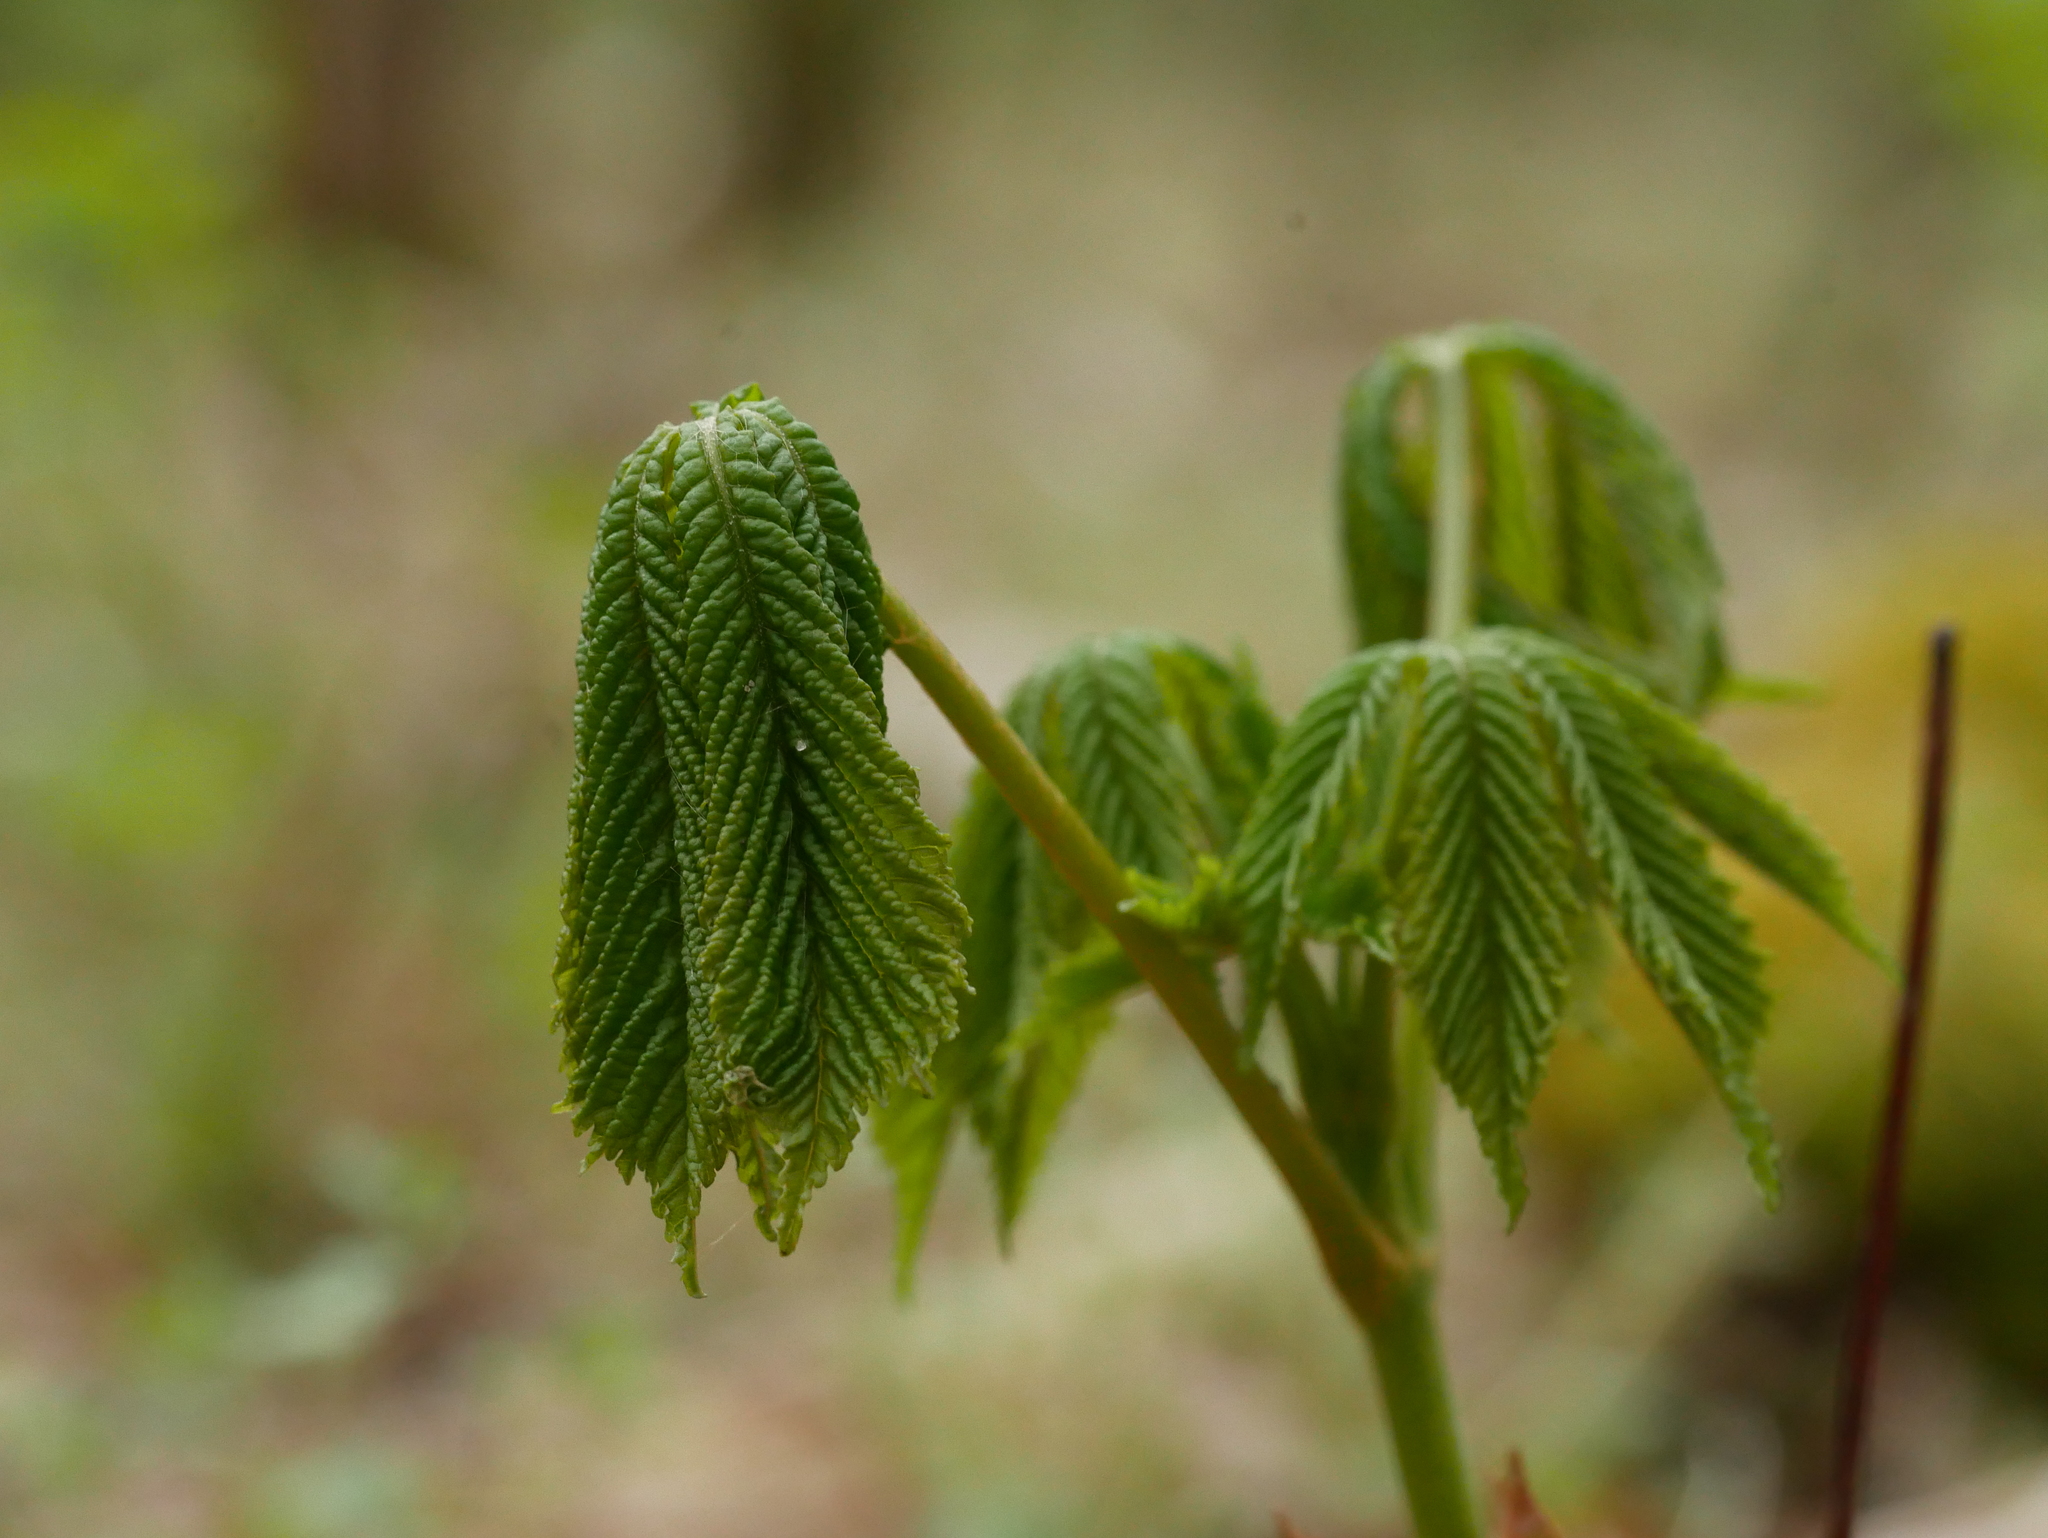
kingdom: Plantae
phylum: Tracheophyta
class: Magnoliopsida
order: Sapindales
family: Sapindaceae
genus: Aesculus
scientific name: Aesculus hippocastanum
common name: Horse-chestnut
